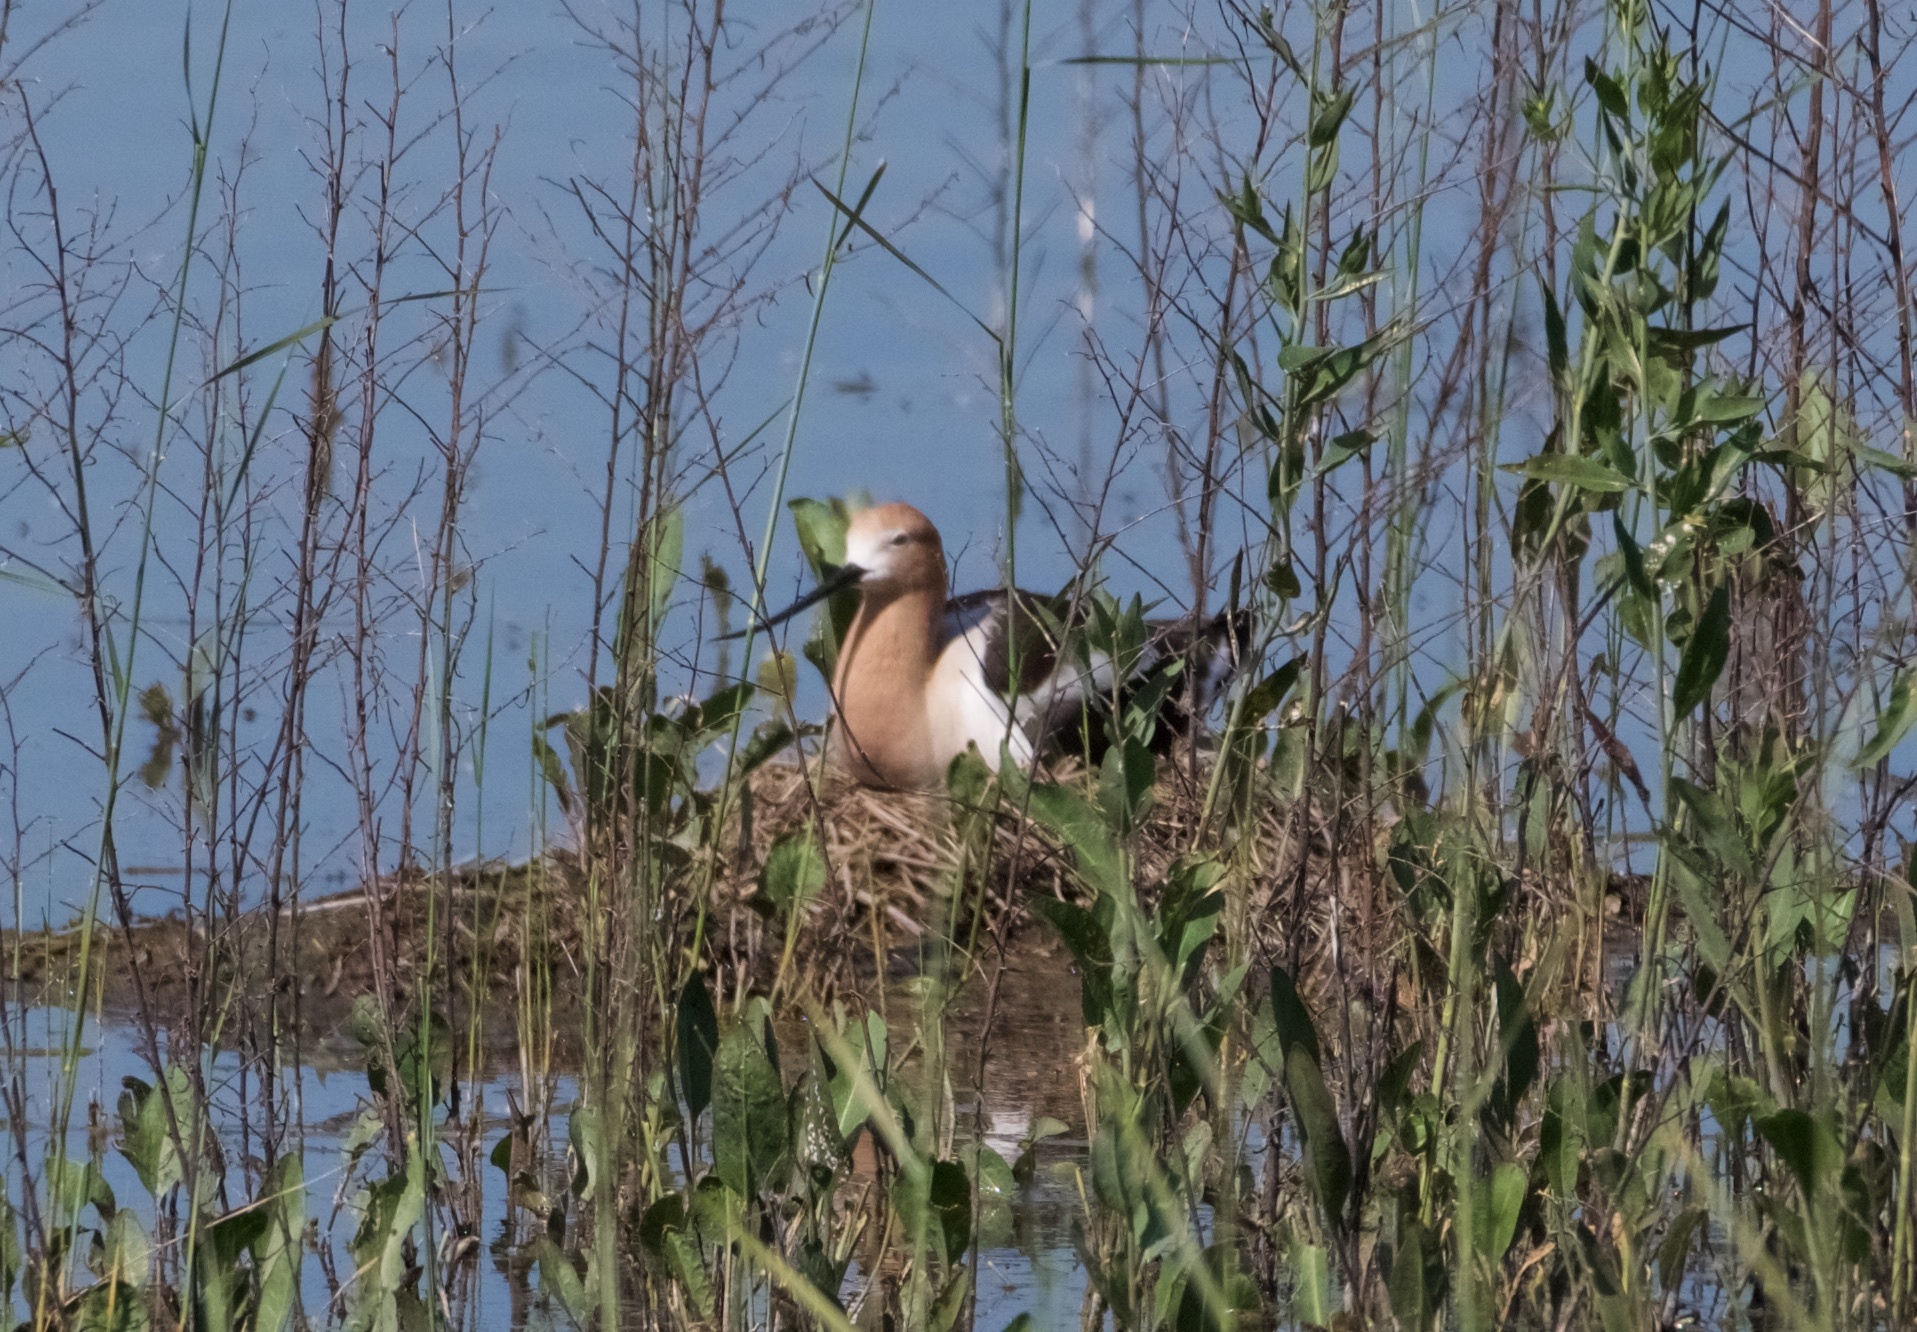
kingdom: Animalia
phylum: Chordata
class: Aves
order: Charadriiformes
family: Recurvirostridae
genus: Recurvirostra
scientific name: Recurvirostra americana
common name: American avocet
